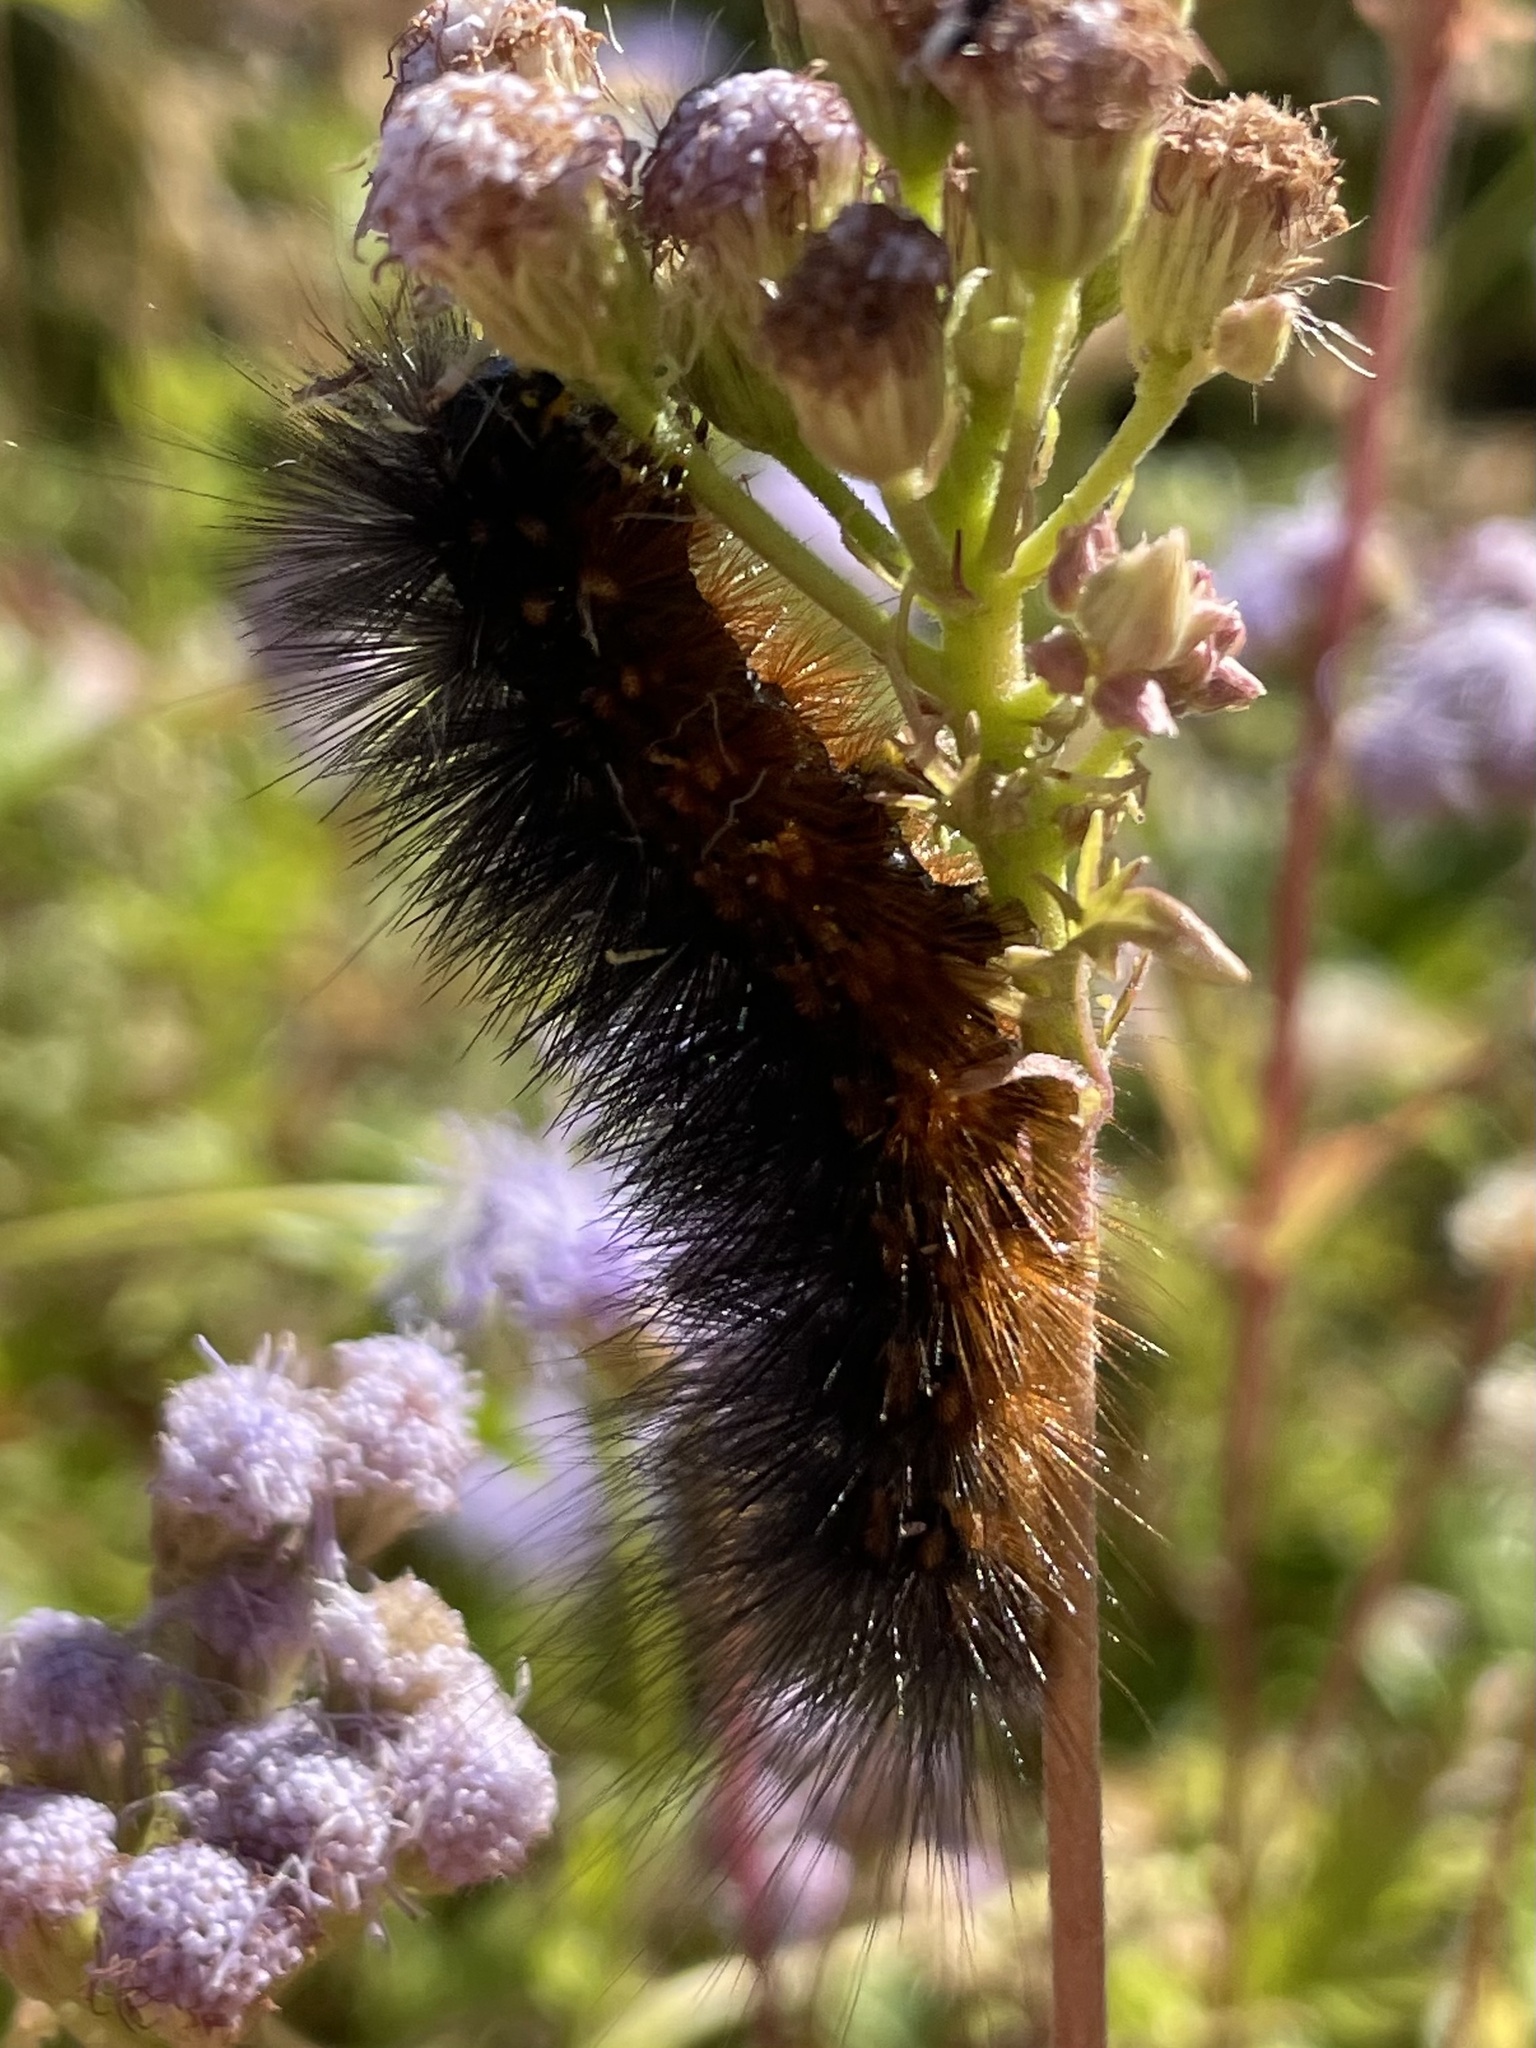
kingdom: Animalia
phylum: Arthropoda
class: Insecta
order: Lepidoptera
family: Erebidae
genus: Estigmene
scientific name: Estigmene acrea
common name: Salt marsh moth
